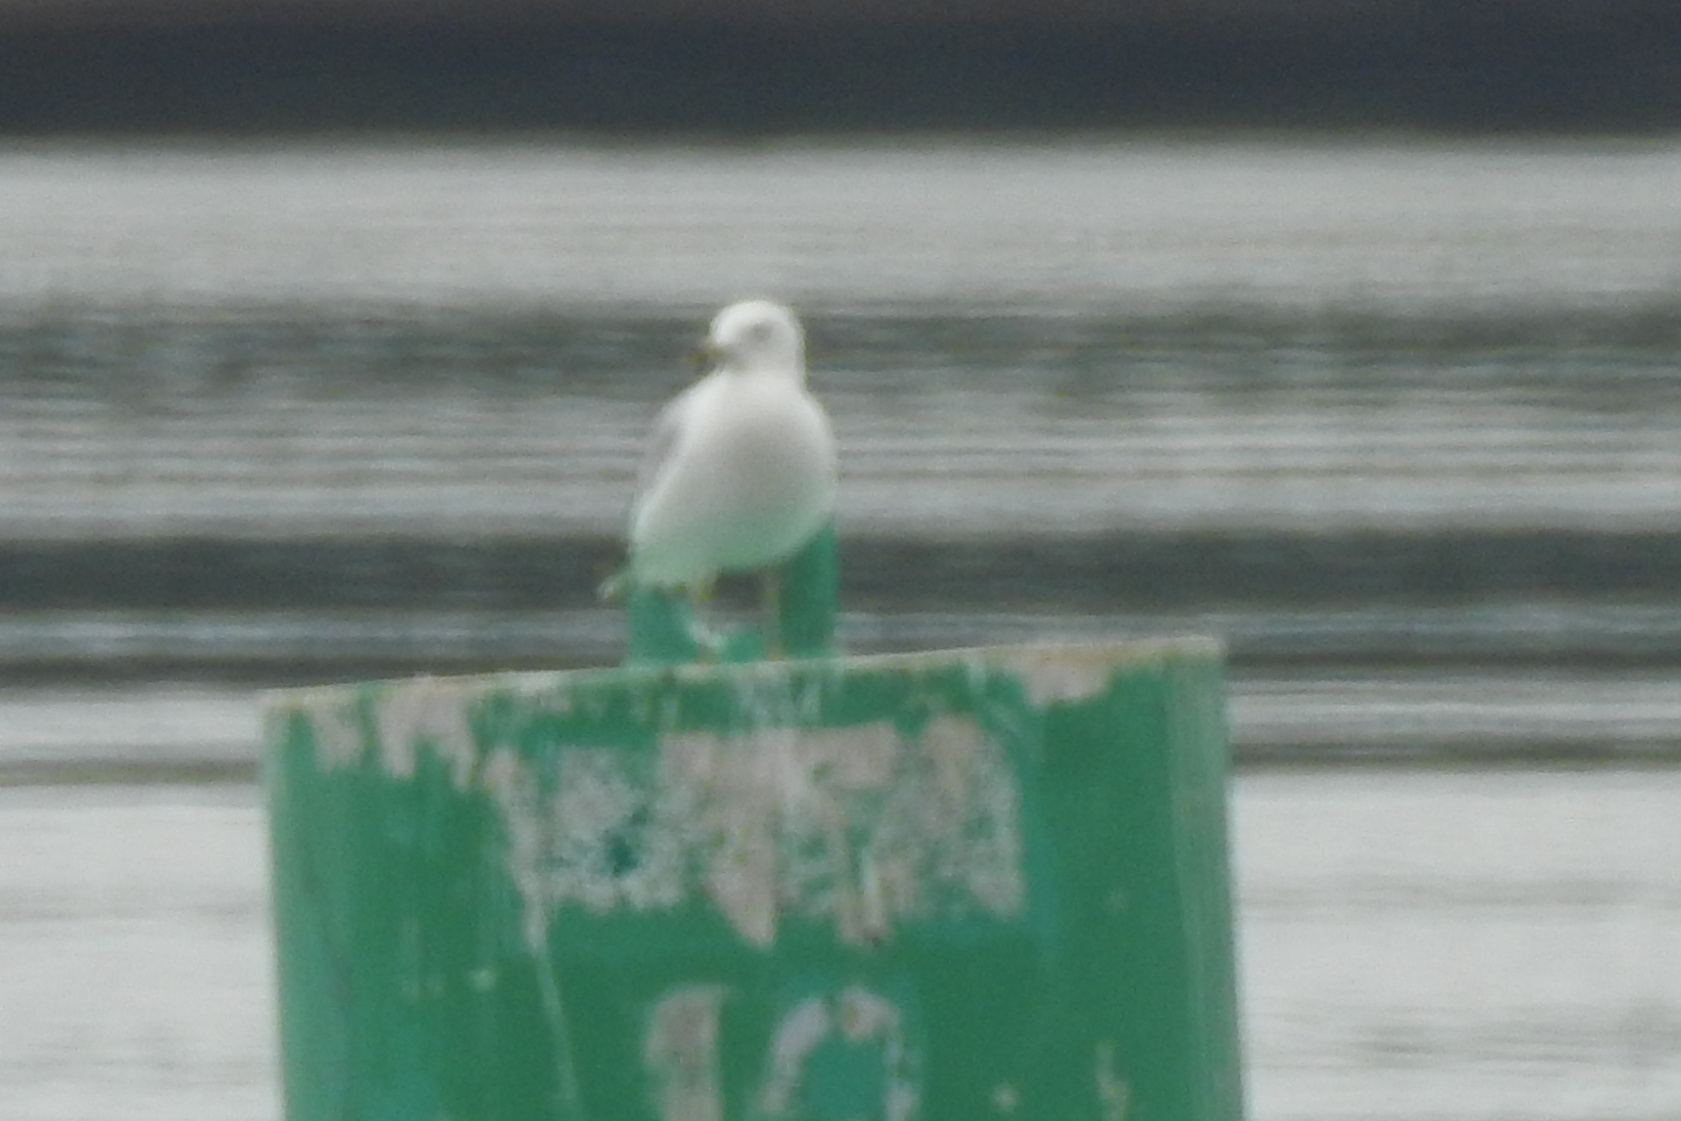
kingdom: Animalia
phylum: Chordata
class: Aves
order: Charadriiformes
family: Laridae
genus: Larus
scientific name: Larus delawarensis
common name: Ring-billed gull
